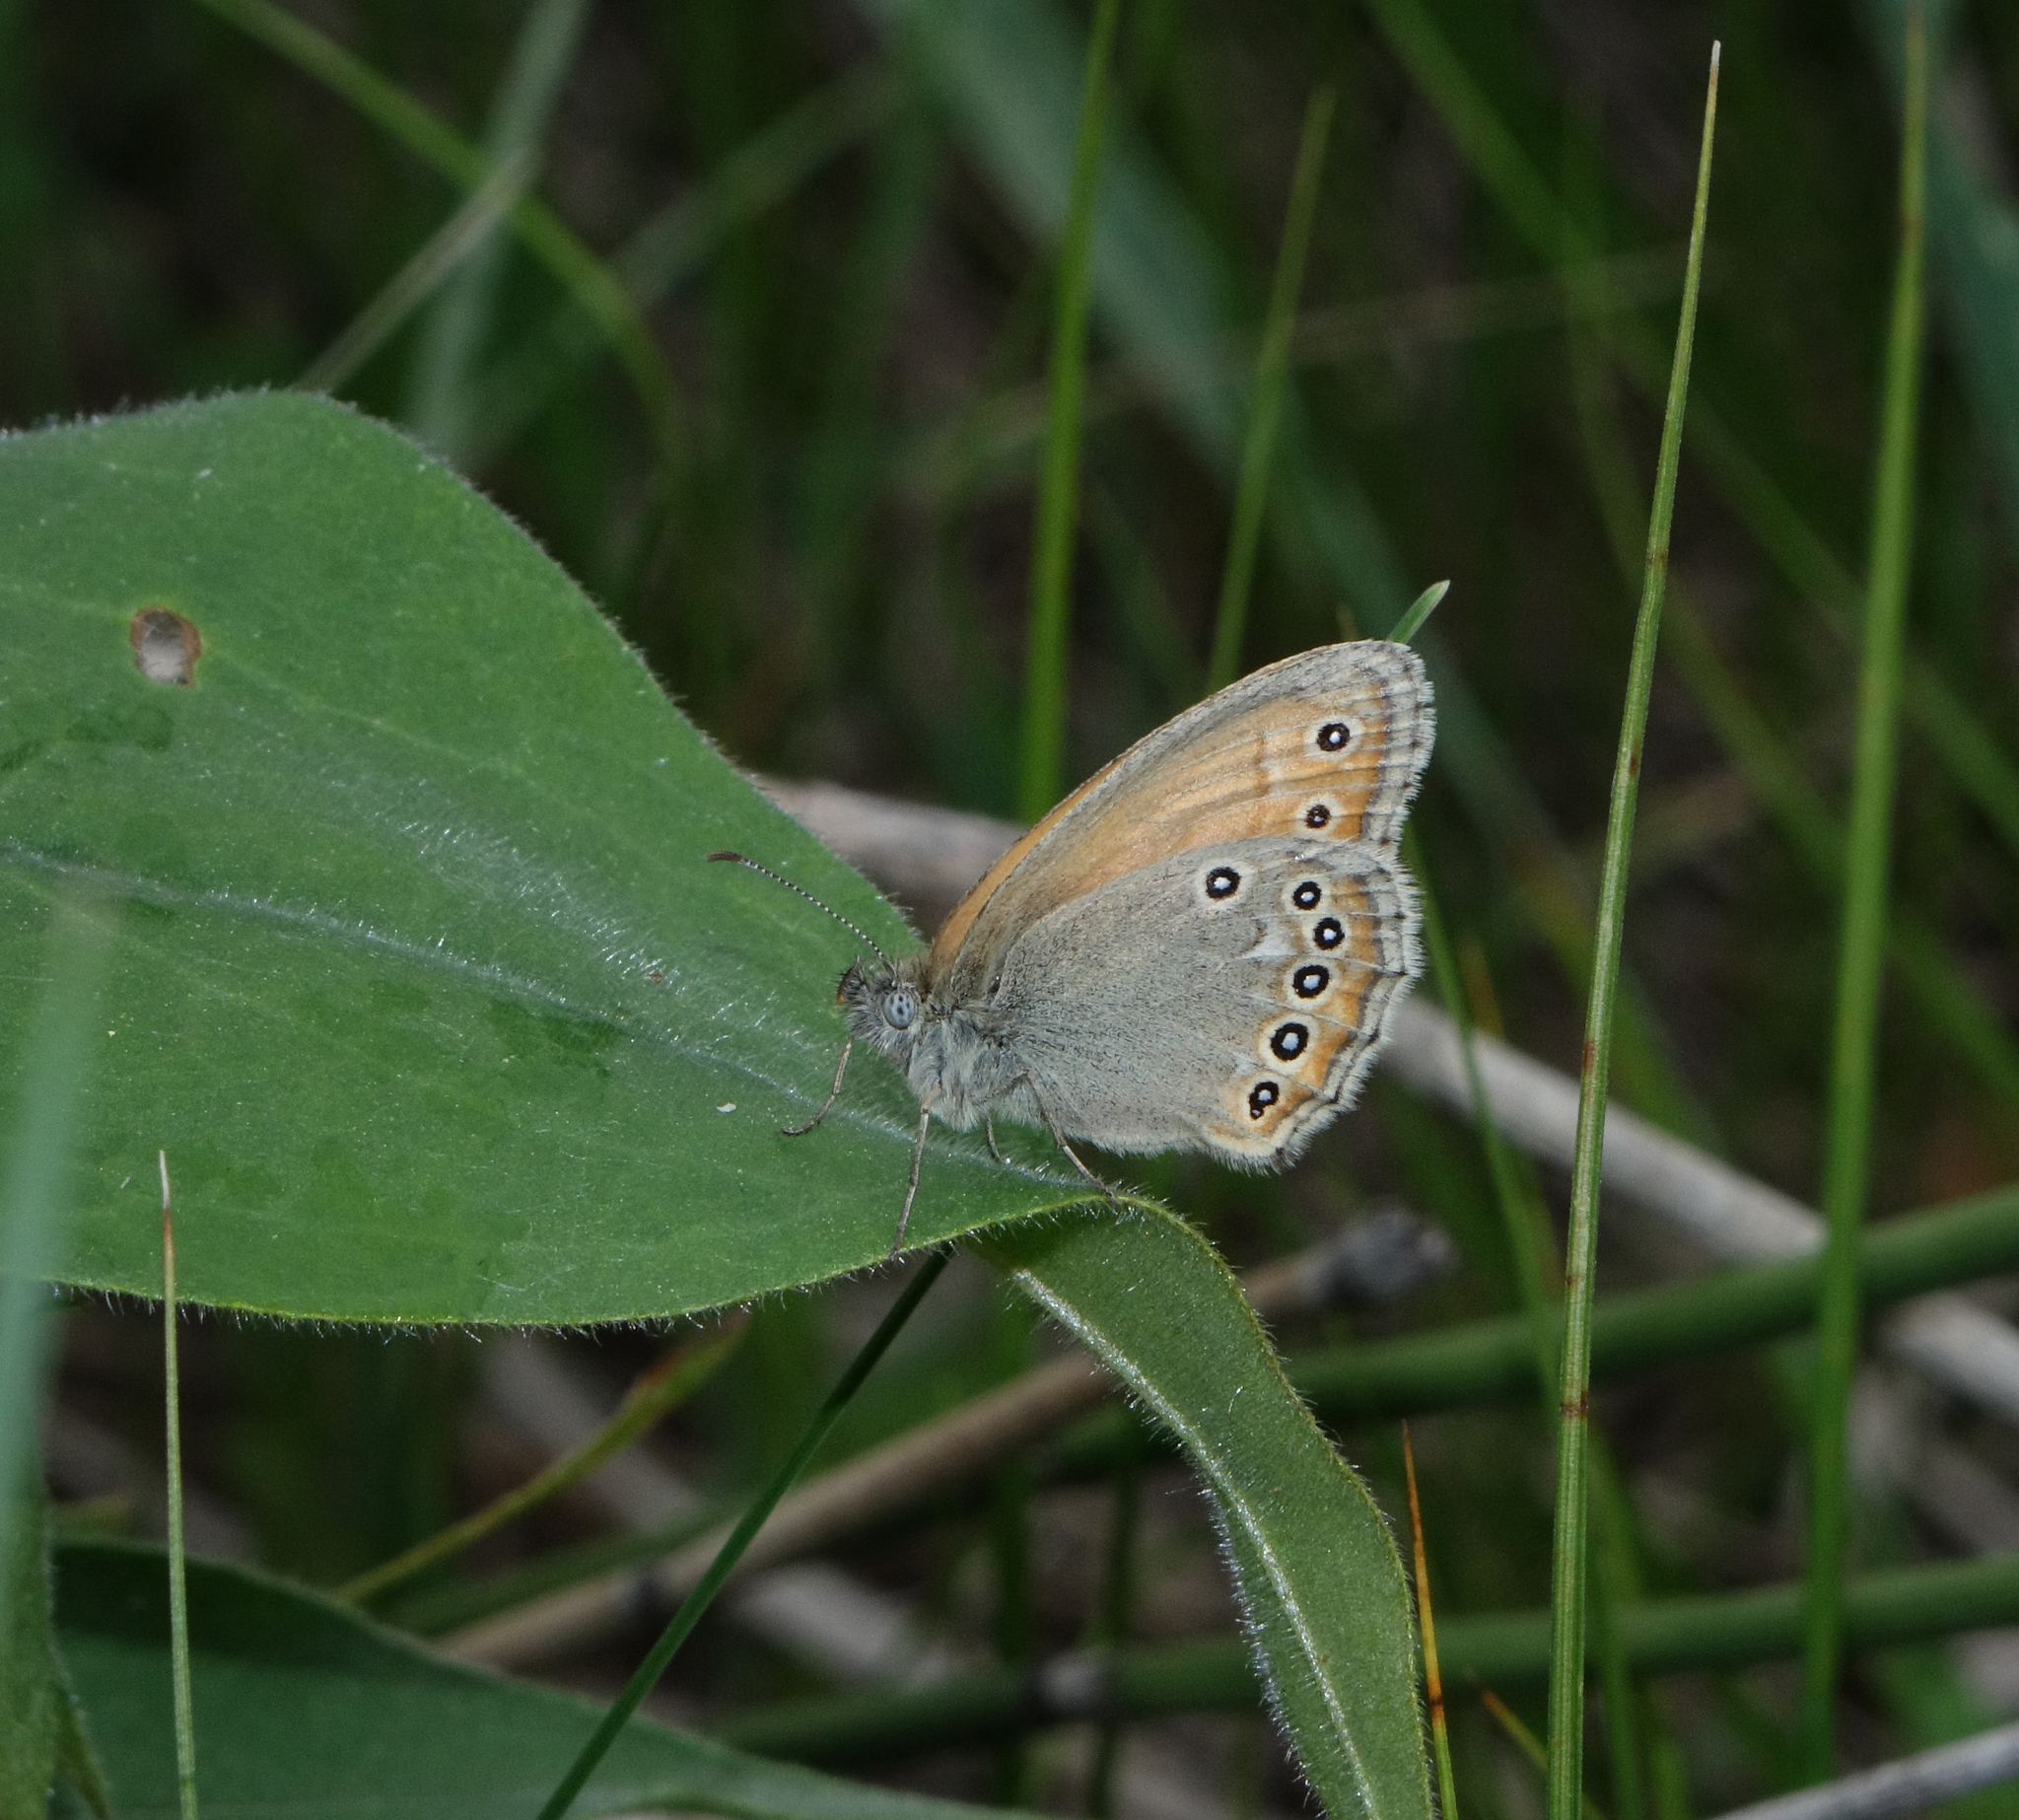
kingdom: Animalia
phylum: Arthropoda
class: Insecta
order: Lepidoptera
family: Nymphalidae
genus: Coenonympha
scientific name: Coenonympha amaryllis
